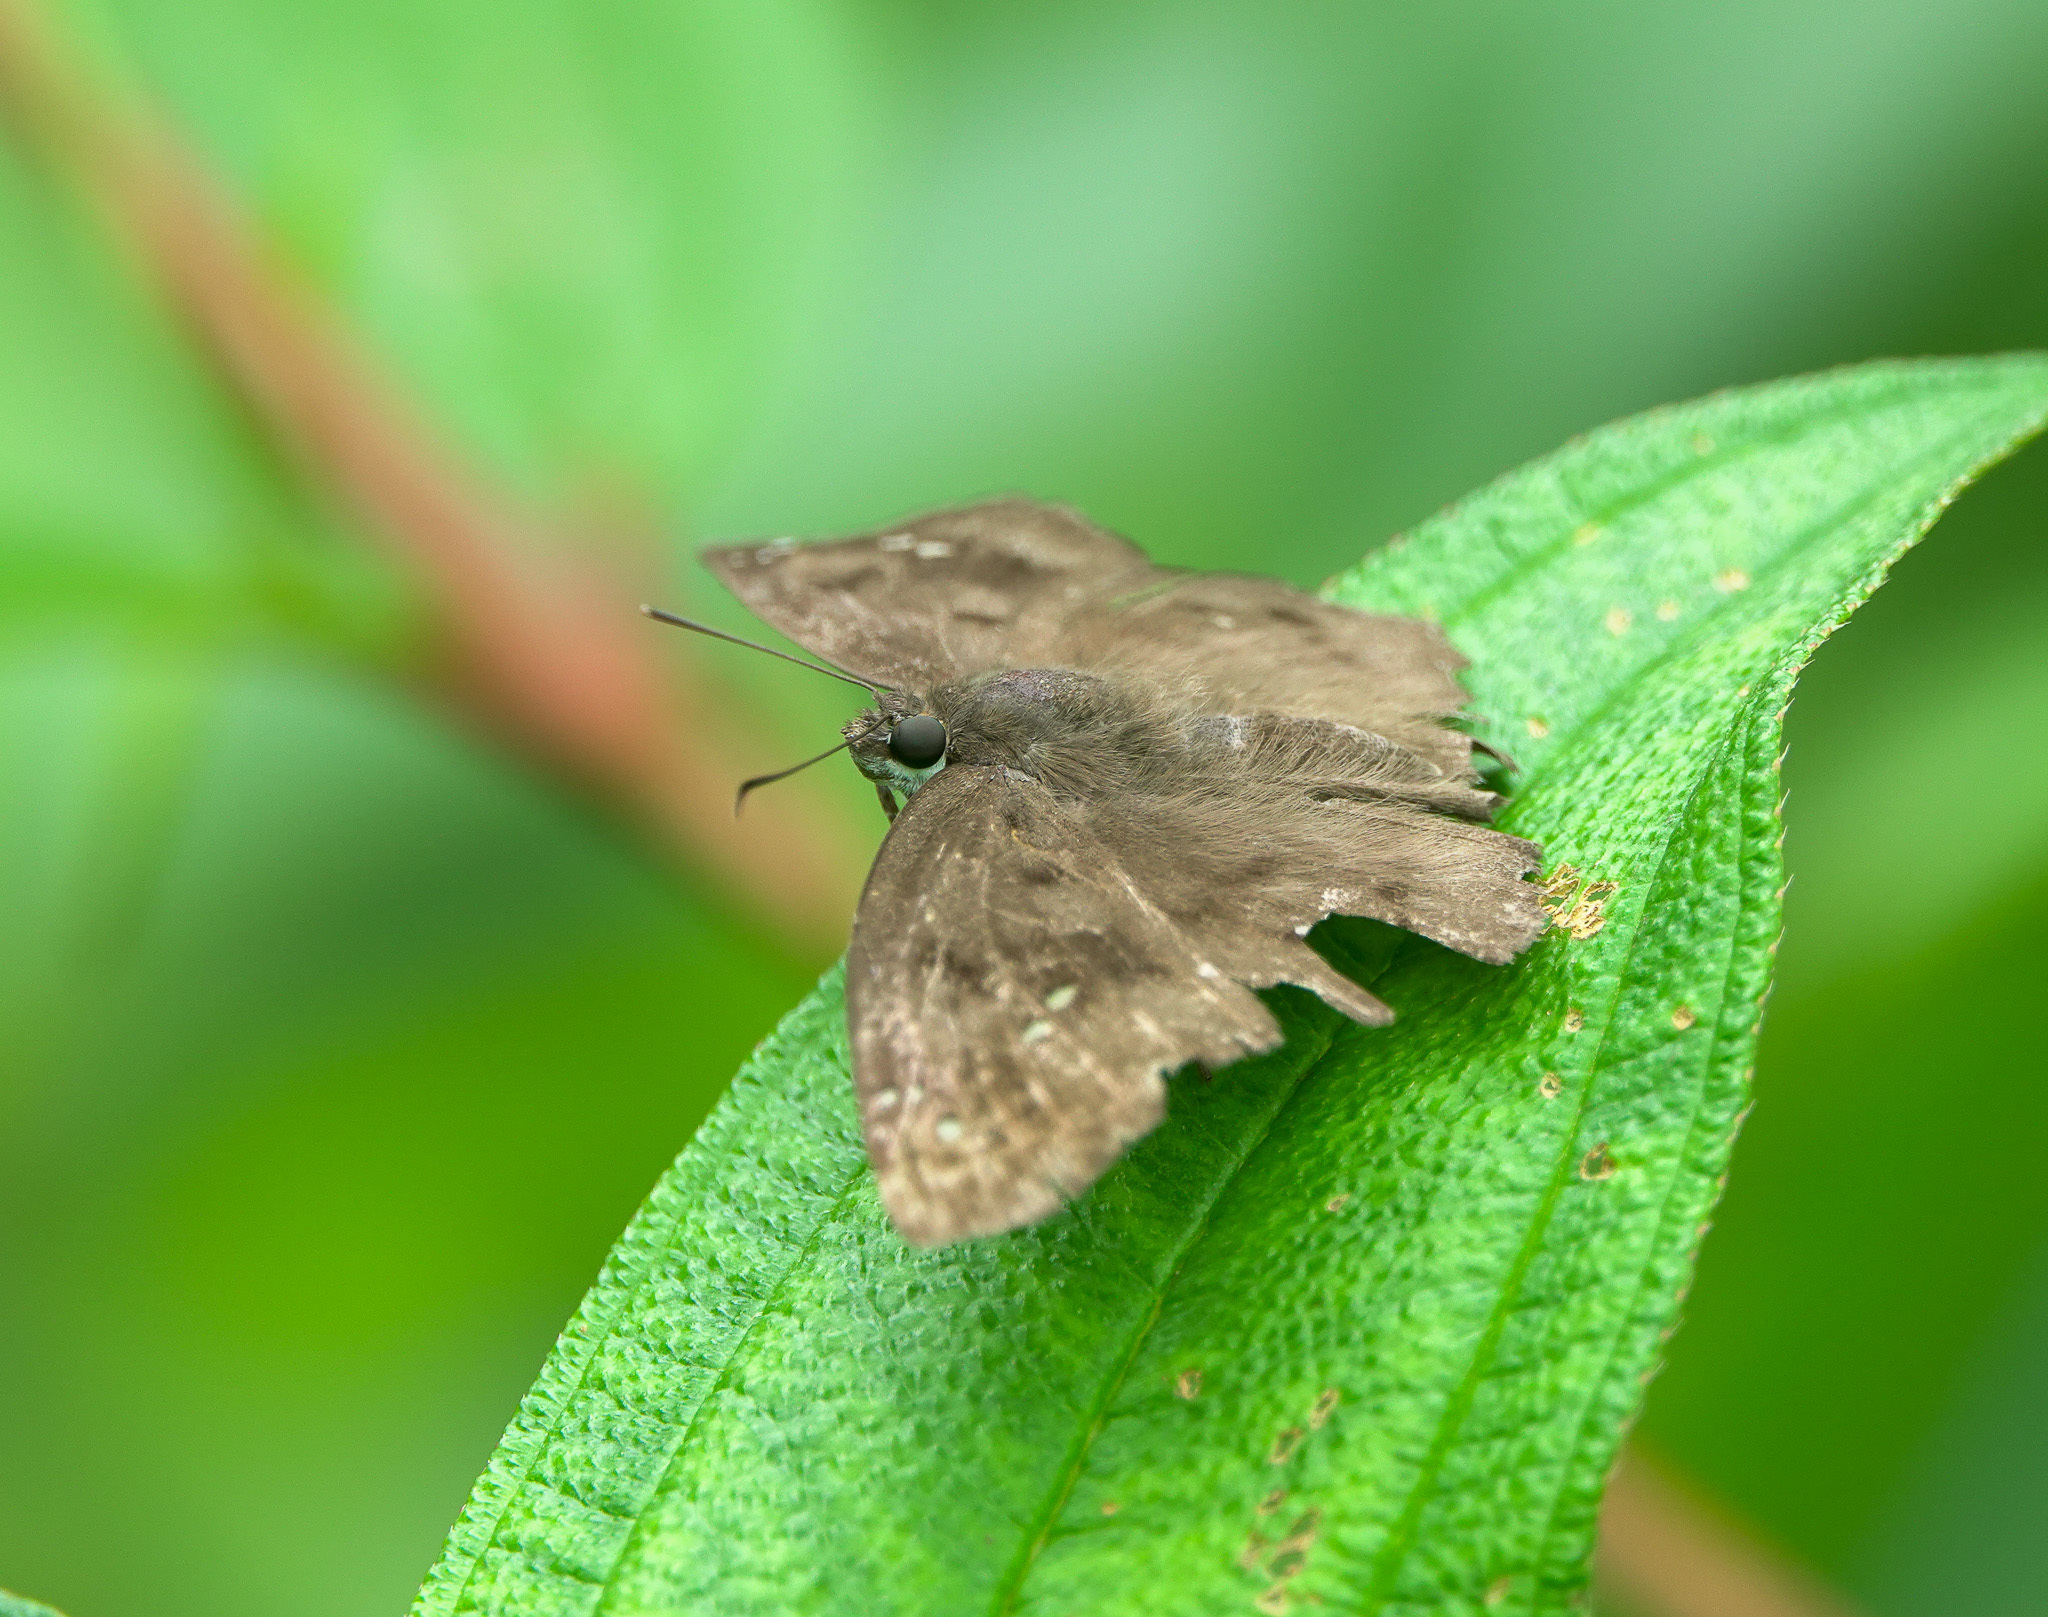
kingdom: Animalia
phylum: Arthropoda
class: Insecta
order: Lepidoptera
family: Hesperiidae
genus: Tagiades
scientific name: Tagiades japetus
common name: Pied flat
